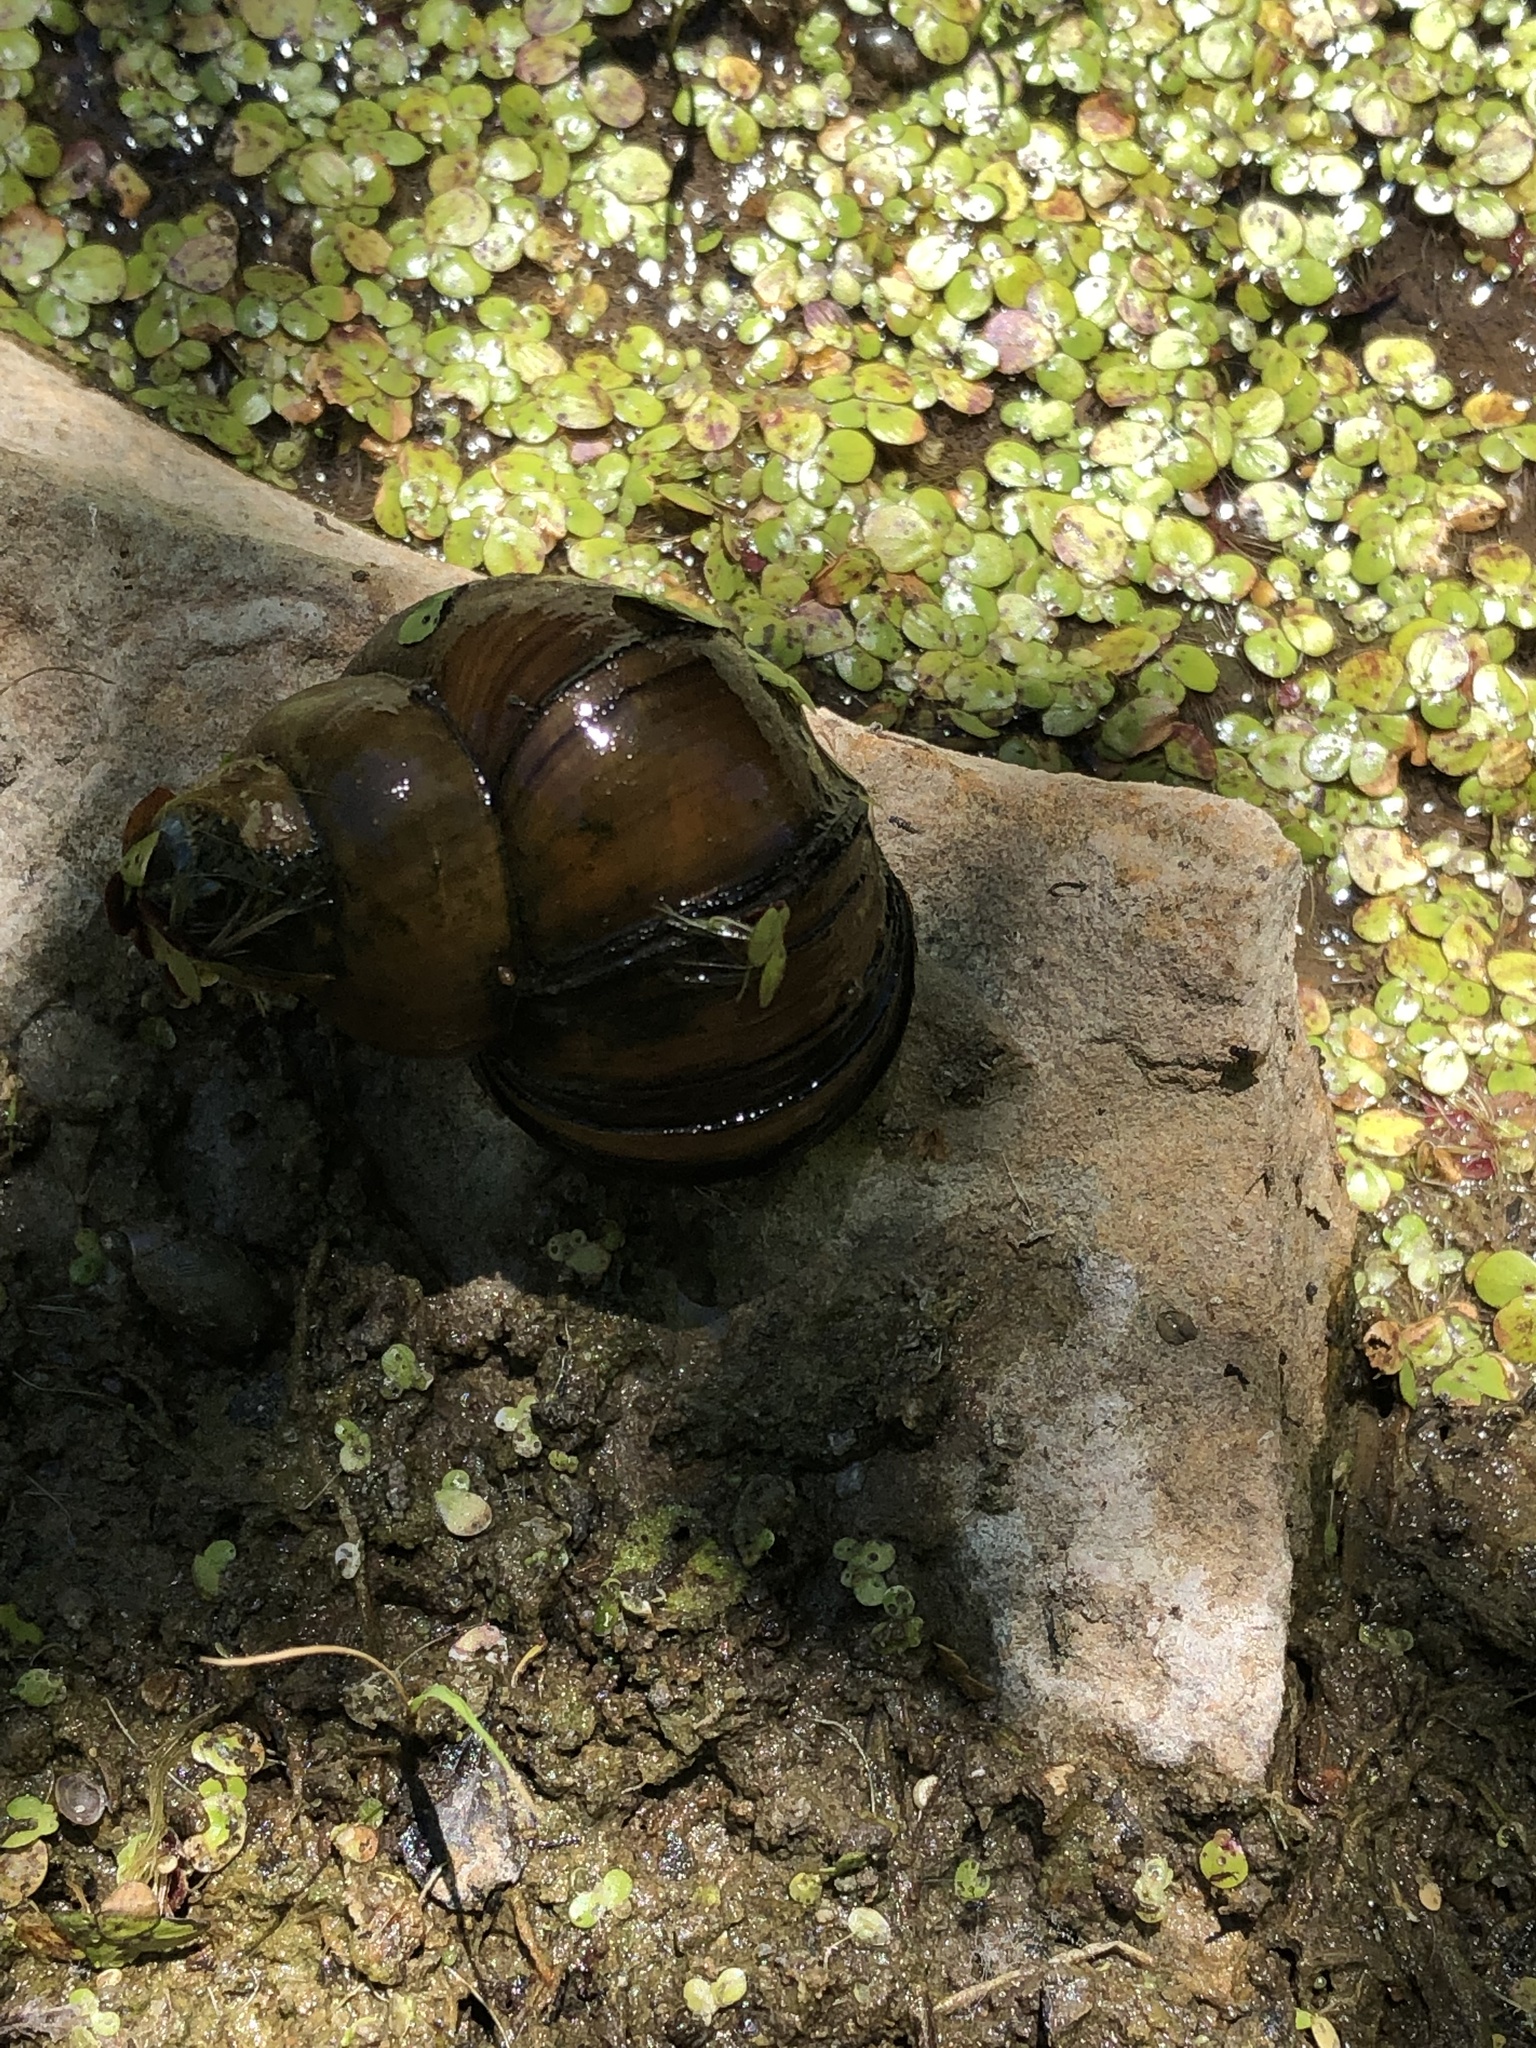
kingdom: Animalia
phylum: Mollusca
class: Gastropoda
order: Architaenioglossa
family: Viviparidae
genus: Cipangopaludina
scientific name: Cipangopaludina chinensis
